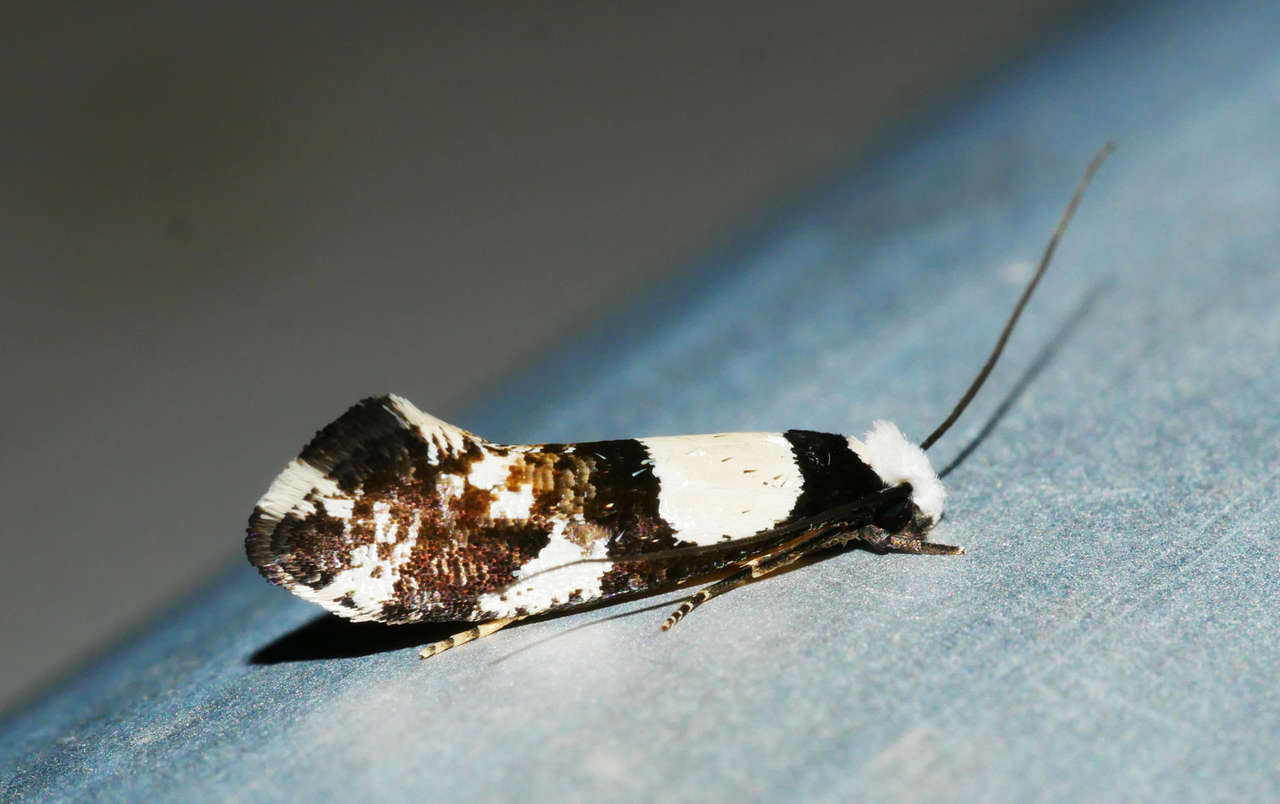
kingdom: Animalia
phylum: Arthropoda
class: Insecta
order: Lepidoptera
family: Tineidae
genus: Monopis
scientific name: Monopis icterogastra
